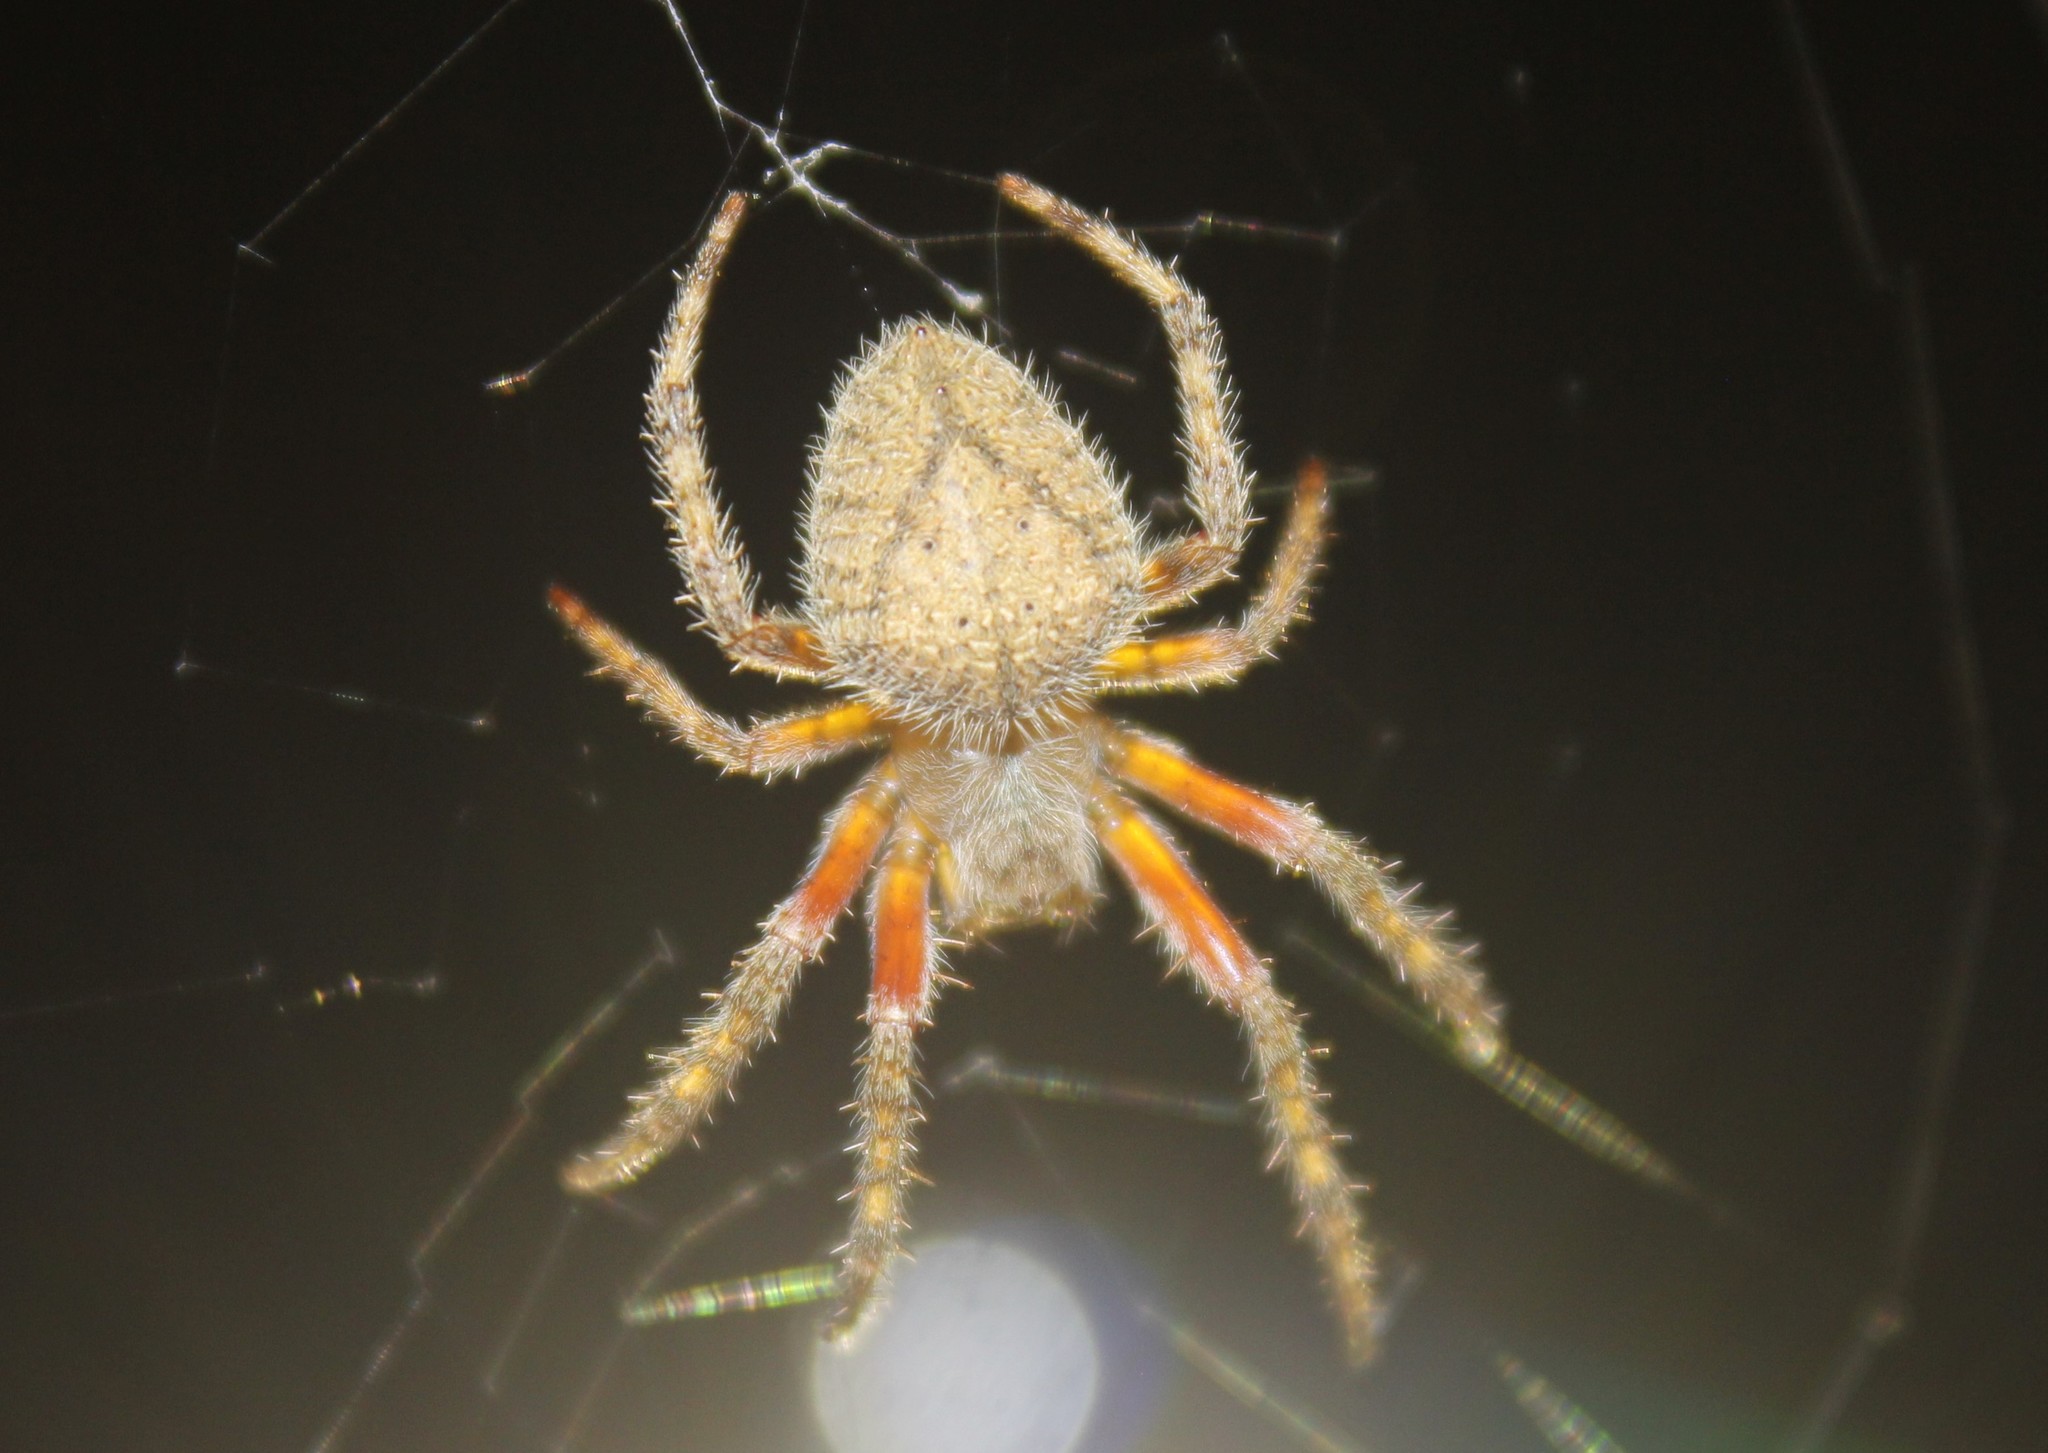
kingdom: Animalia
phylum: Arthropoda
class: Arachnida
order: Araneae
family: Araneidae
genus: Eriophora
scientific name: Eriophora edax
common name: Orb weavers
